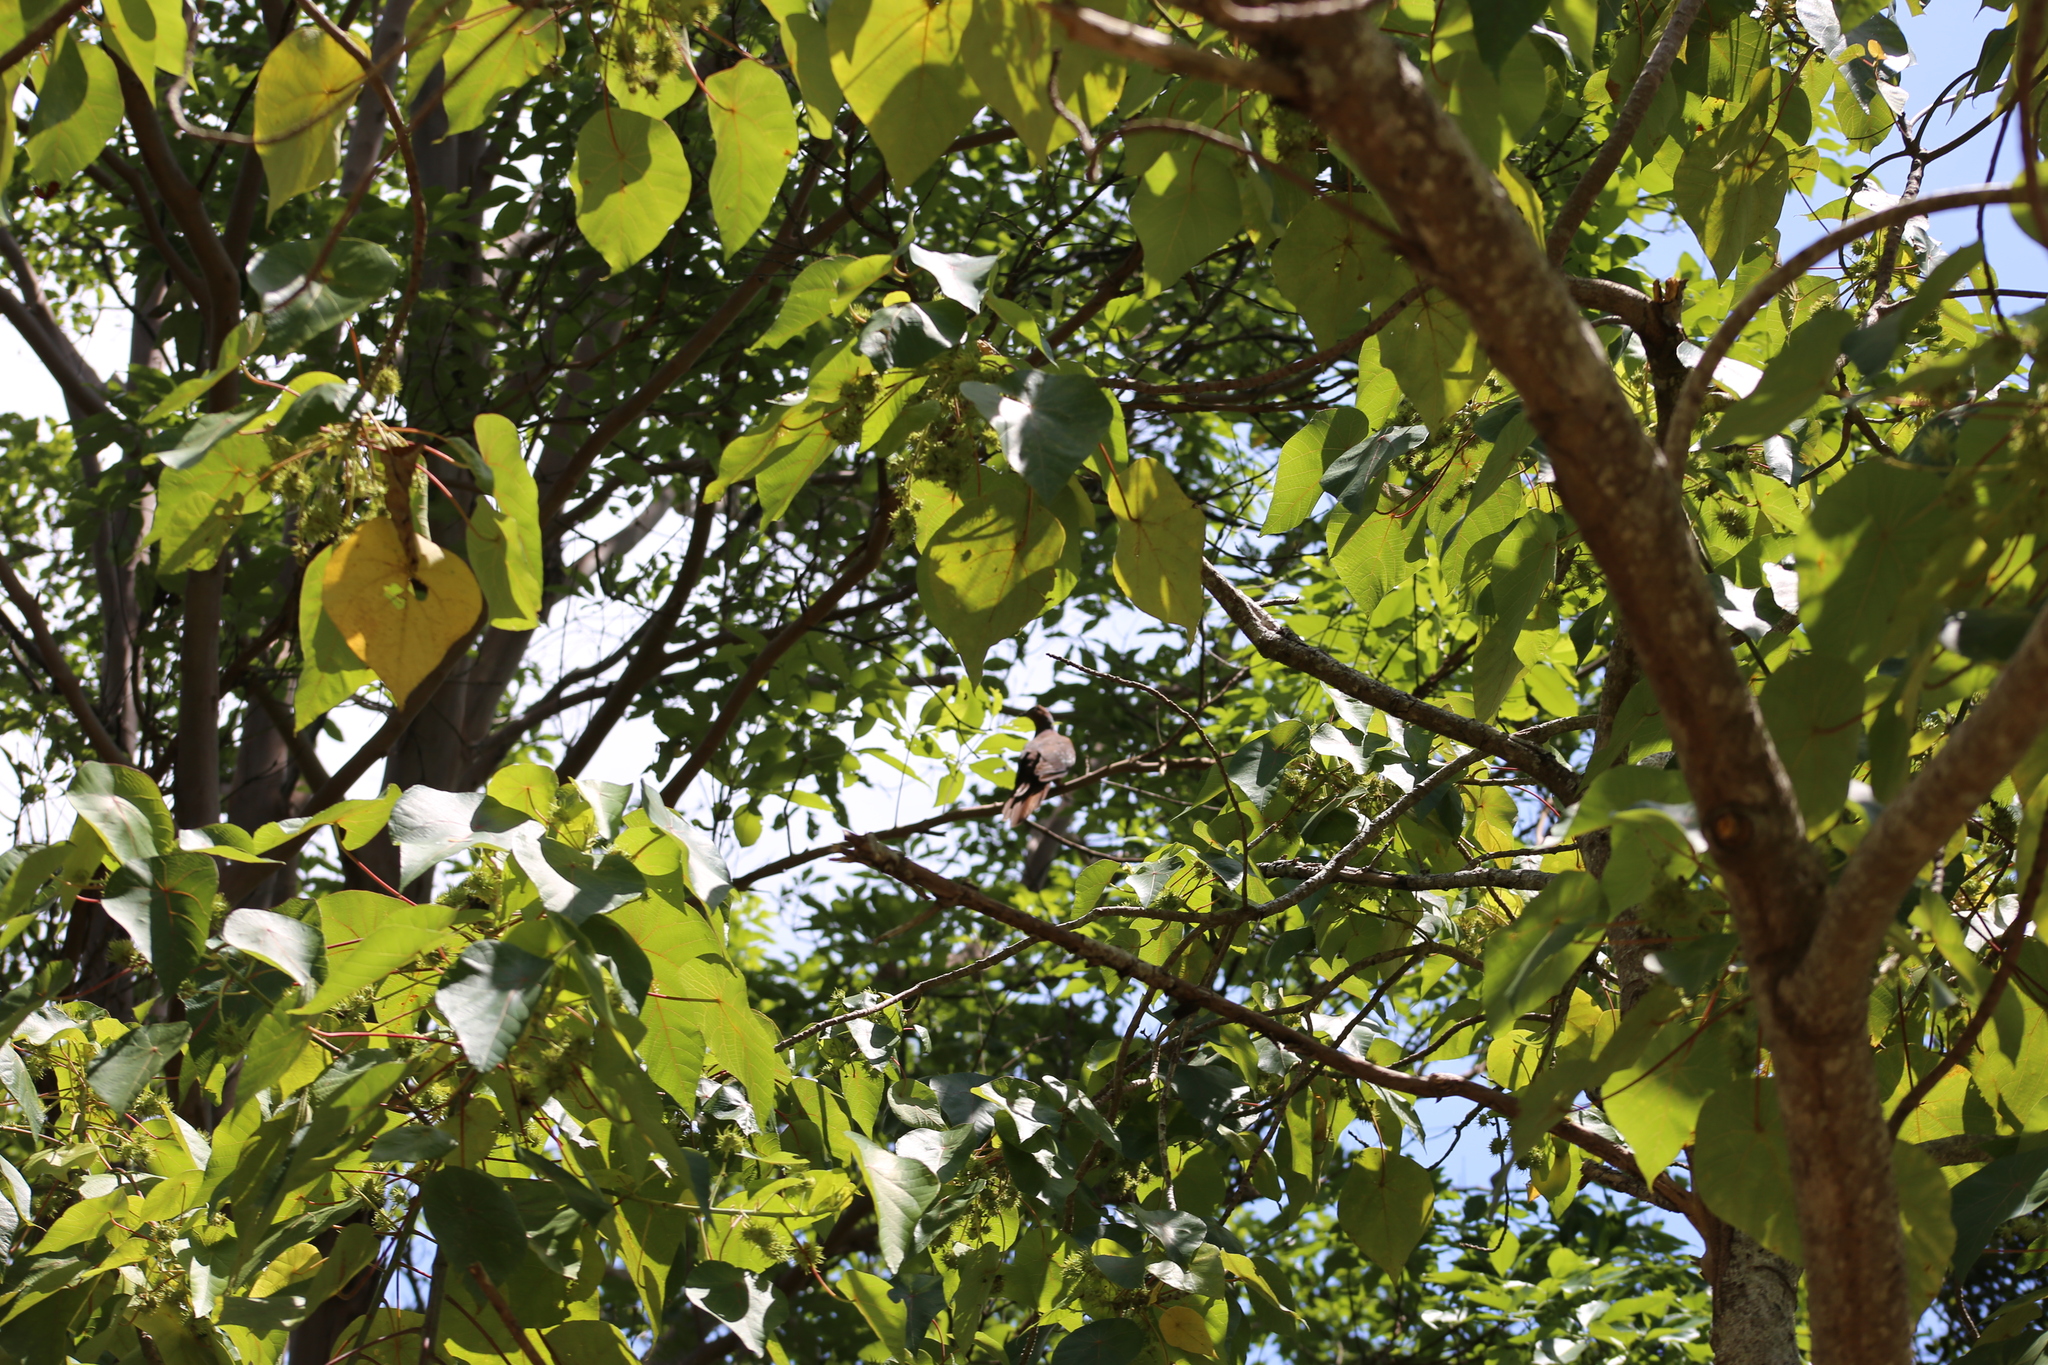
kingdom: Animalia
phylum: Chordata
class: Aves
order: Columbiformes
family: Columbidae
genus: Macropygia
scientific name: Macropygia phasianella
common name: Brown cuckoo-dove
